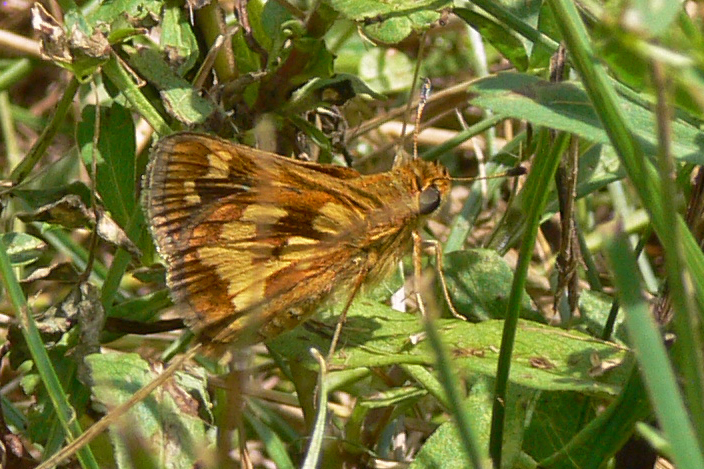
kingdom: Animalia
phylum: Arthropoda
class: Insecta
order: Lepidoptera
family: Hesperiidae
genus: Polites
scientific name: Polites coras
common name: Peck's skipper
